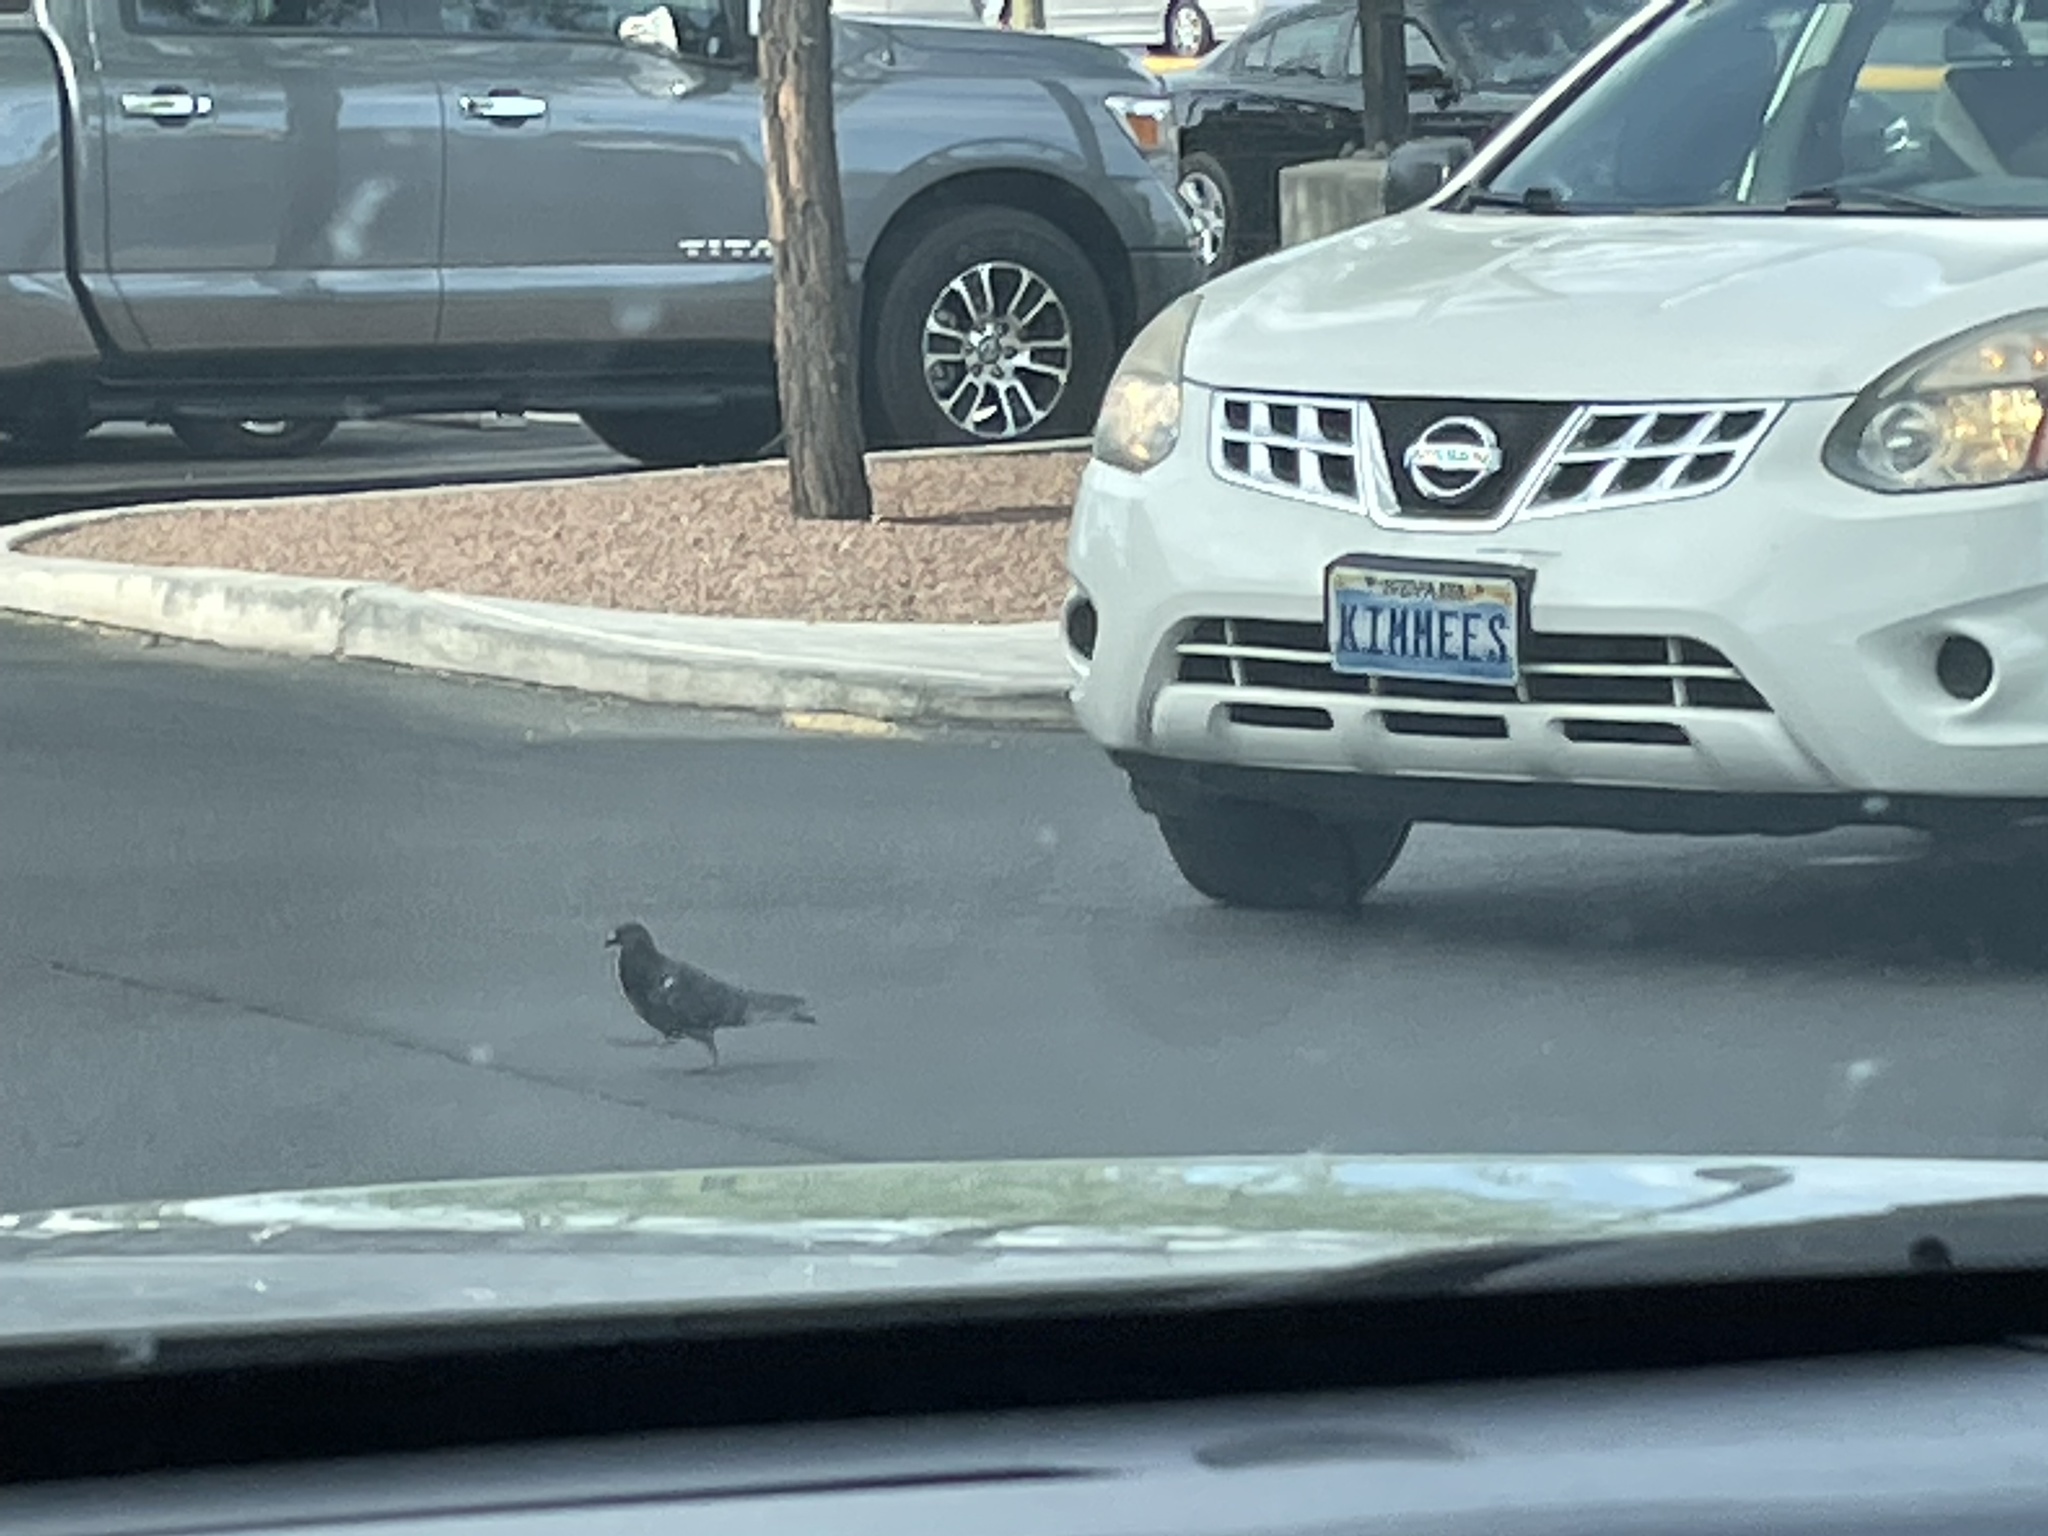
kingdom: Animalia
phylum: Chordata
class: Aves
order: Columbiformes
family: Columbidae
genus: Columba
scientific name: Columba livia
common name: Rock pigeon
